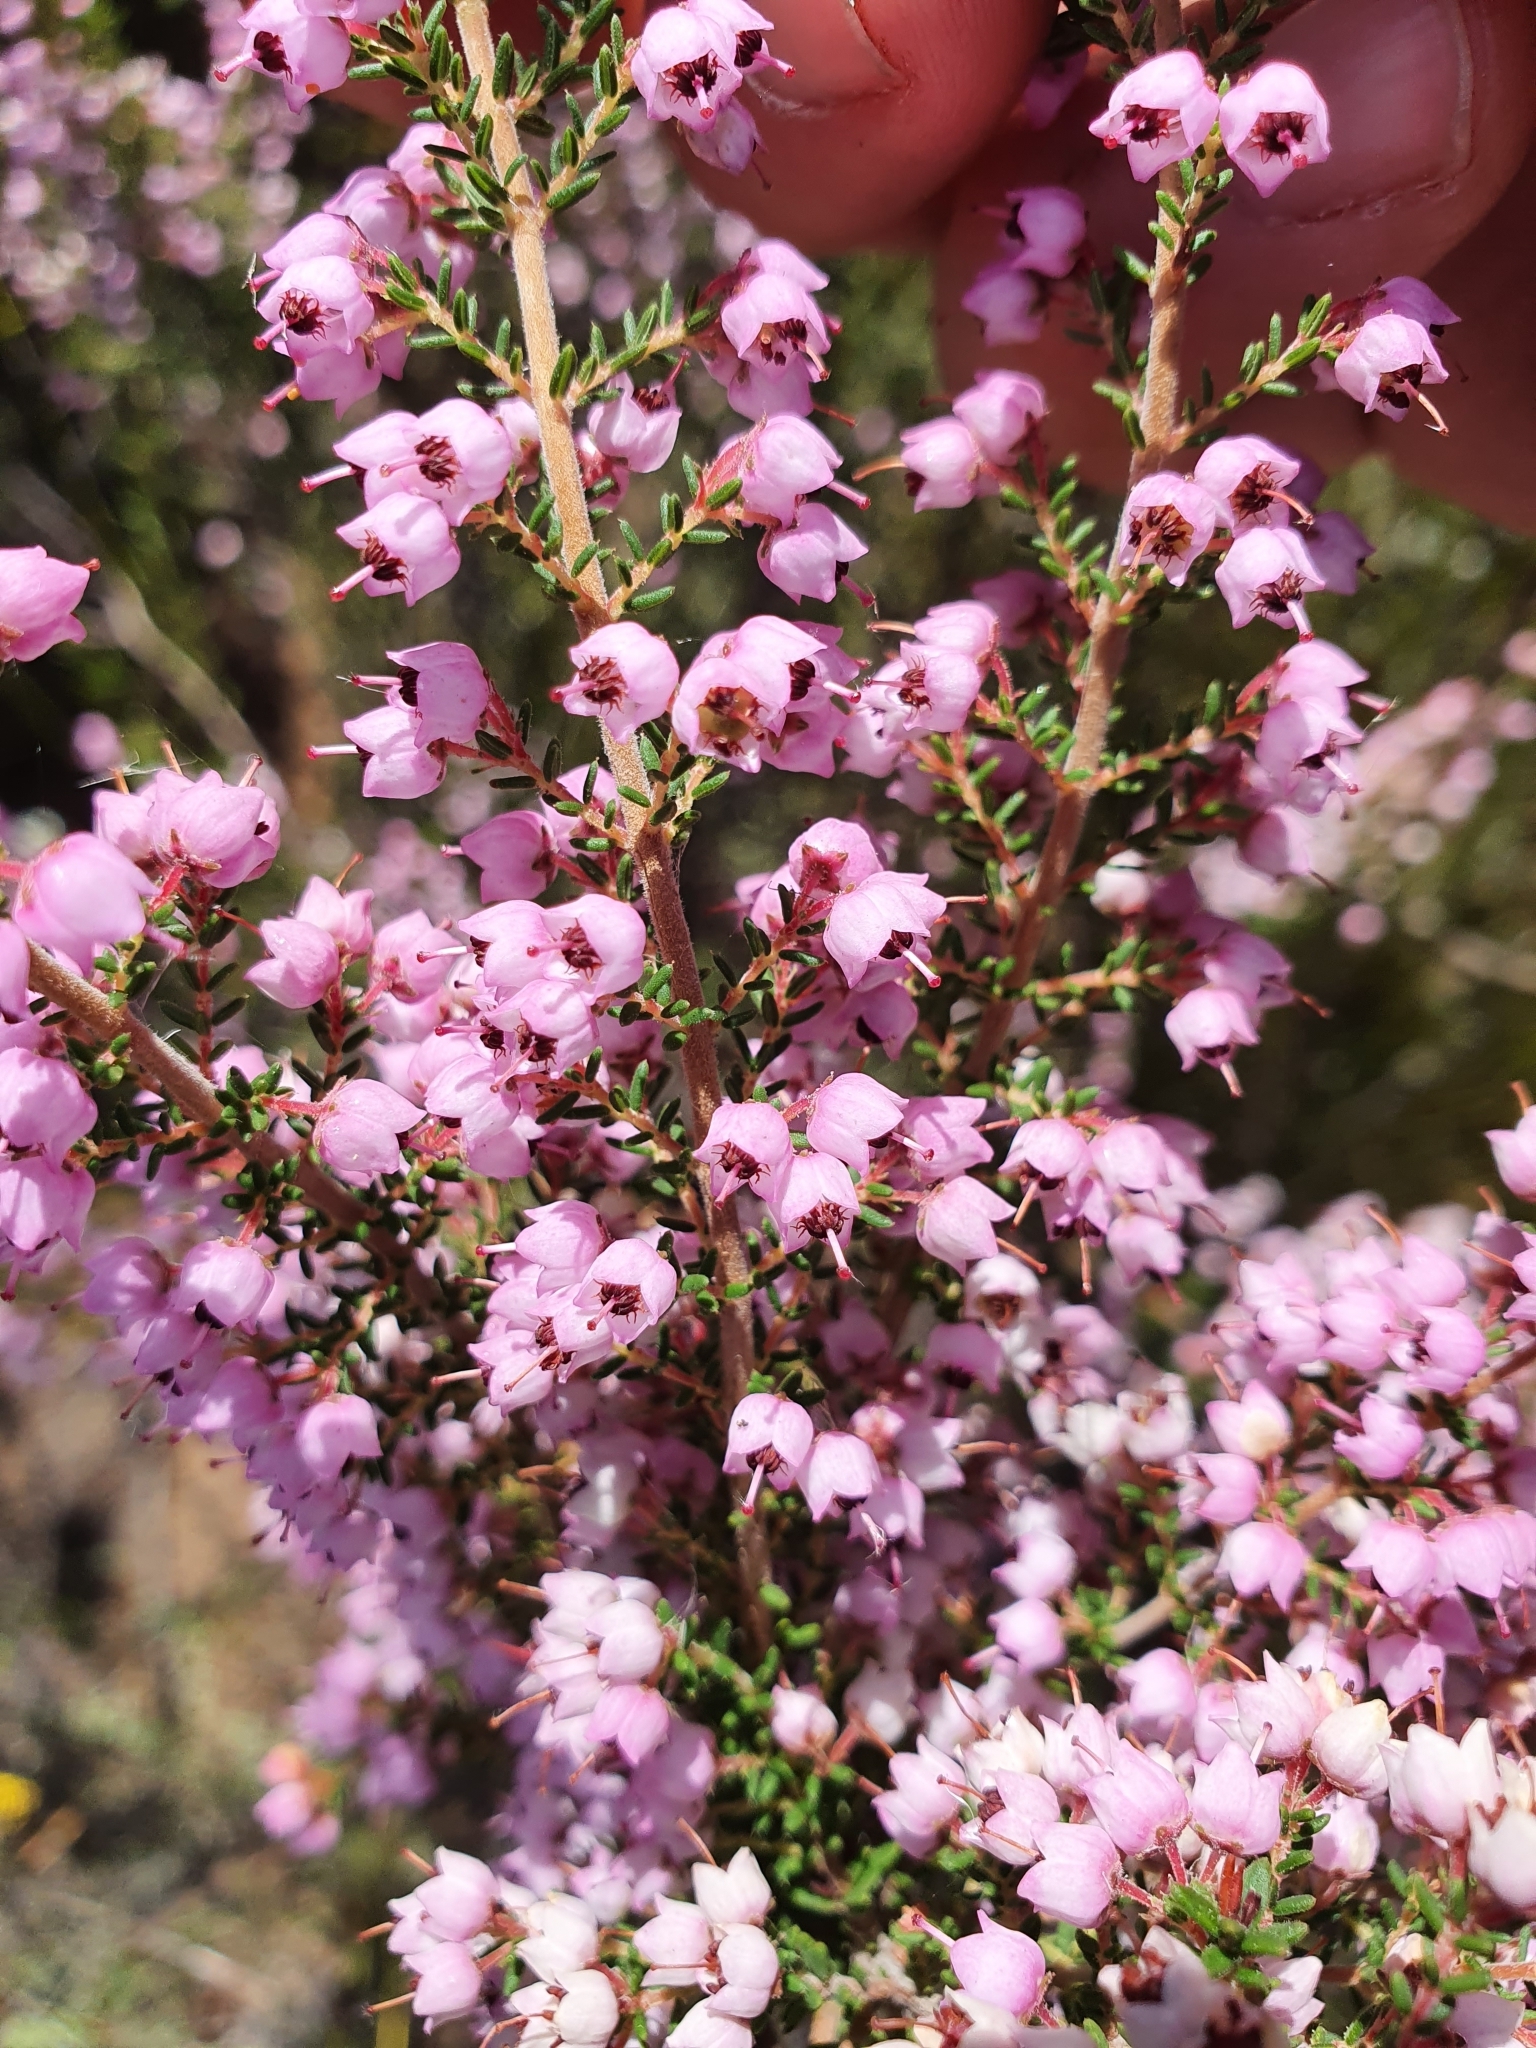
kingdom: Plantae
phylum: Tracheophyta
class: Magnoliopsida
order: Ericales
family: Ericaceae
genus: Erica
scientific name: Erica bicolor
